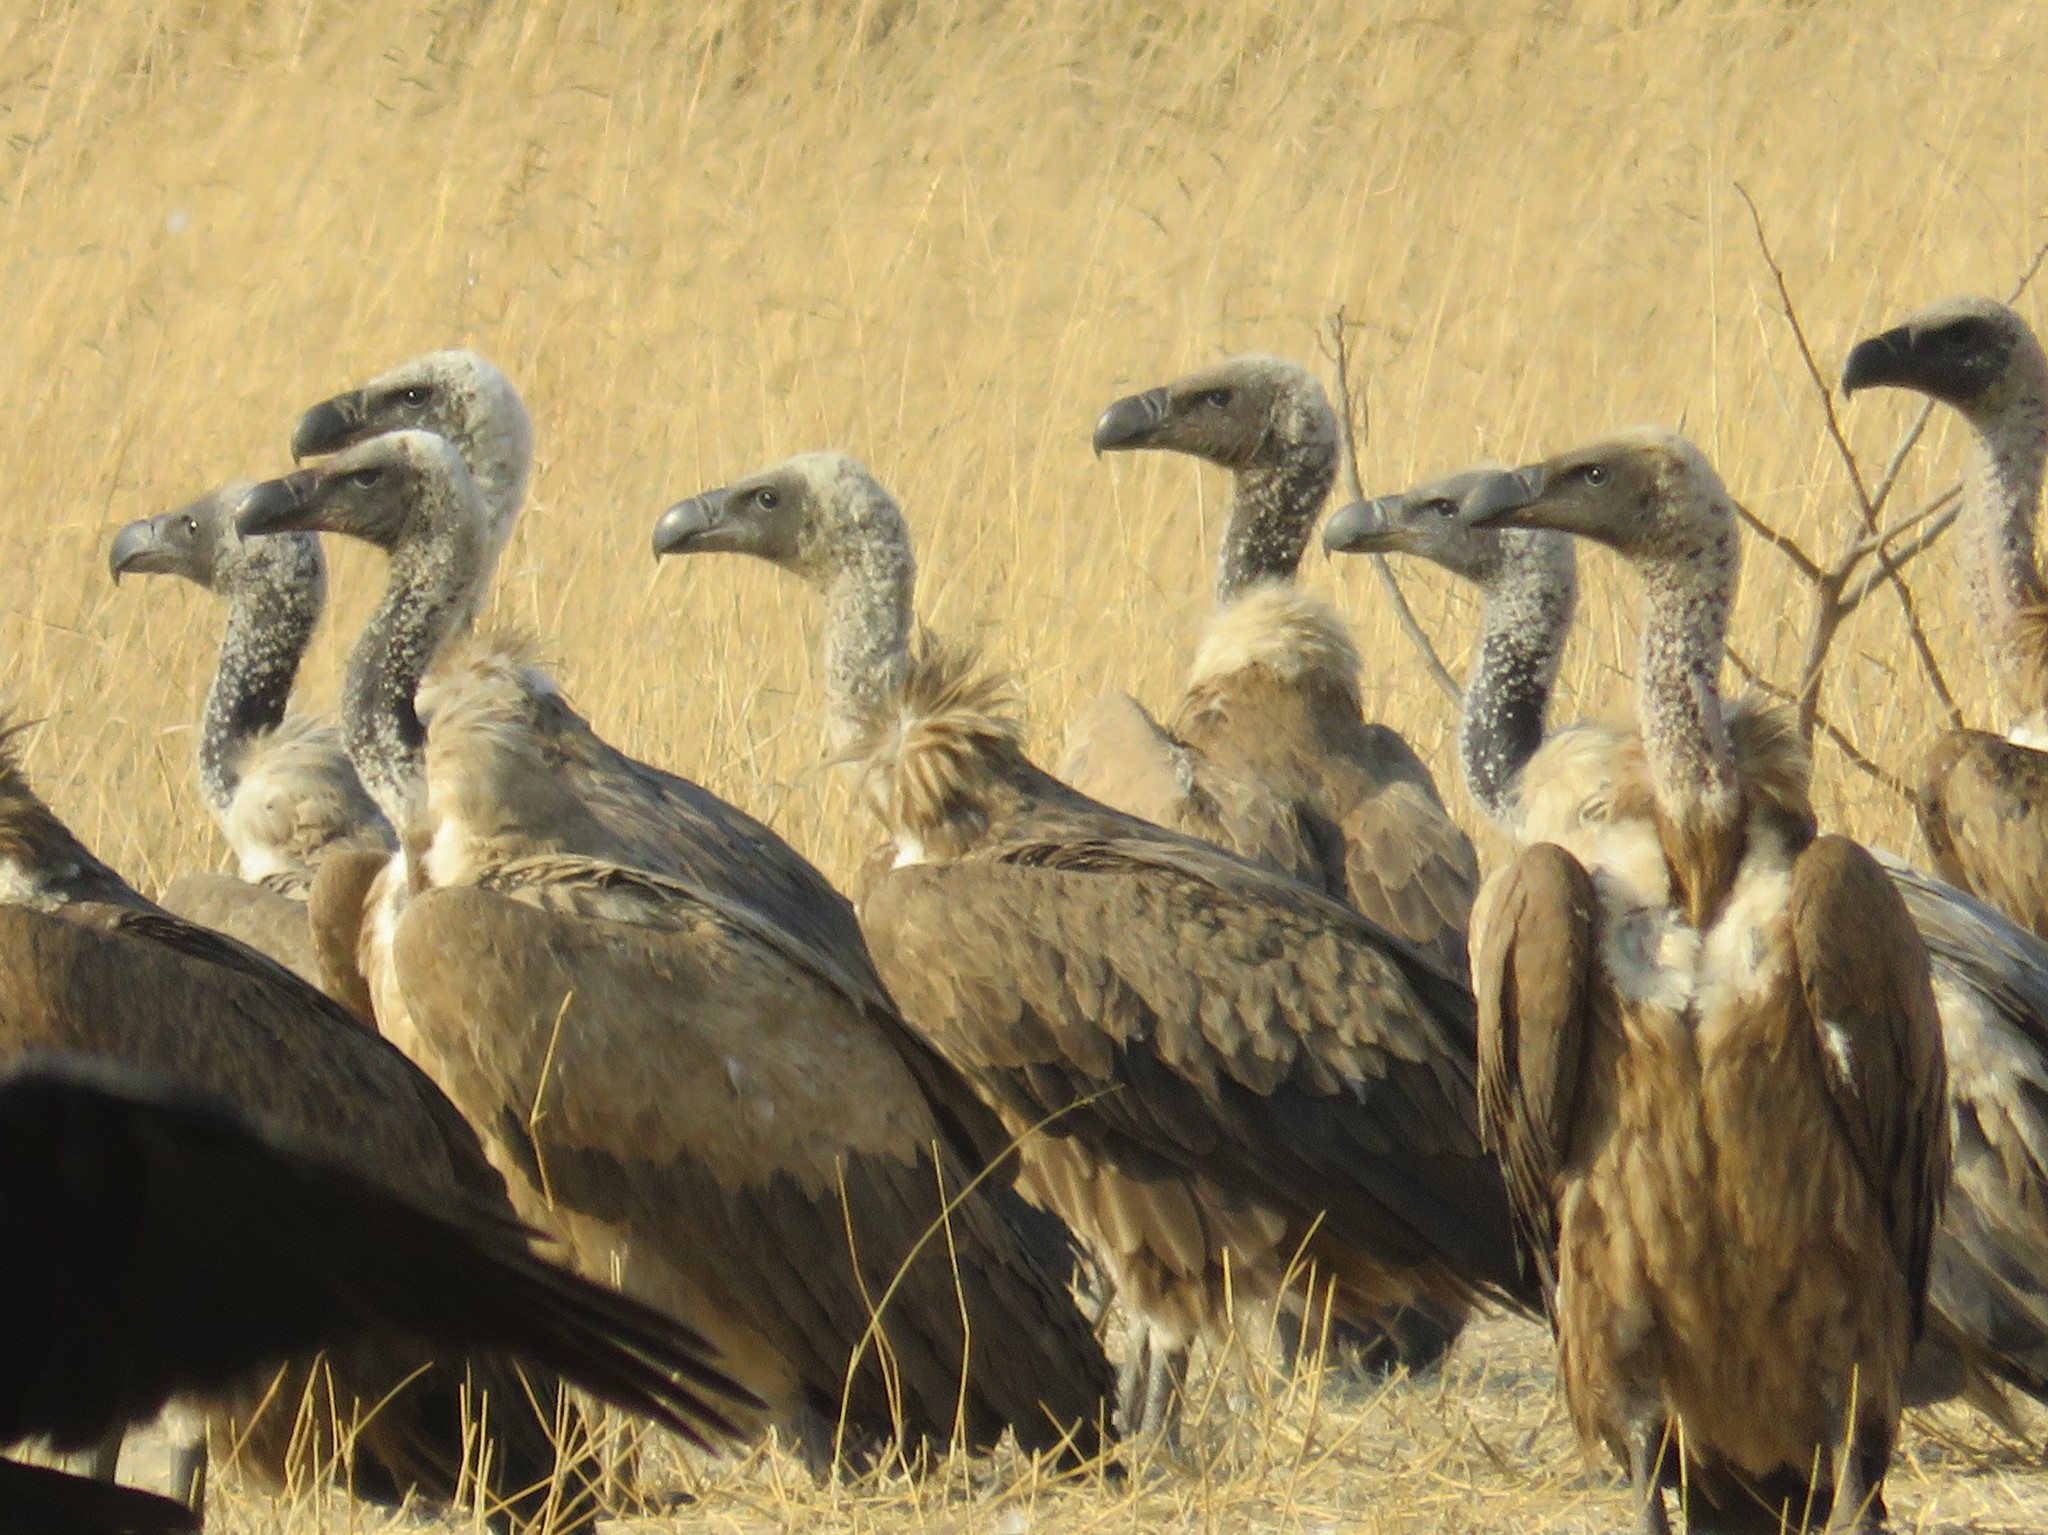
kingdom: Animalia
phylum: Chordata
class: Aves
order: Accipitriformes
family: Accipitridae
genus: Gyps
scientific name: Gyps africanus
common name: White-backed vulture
